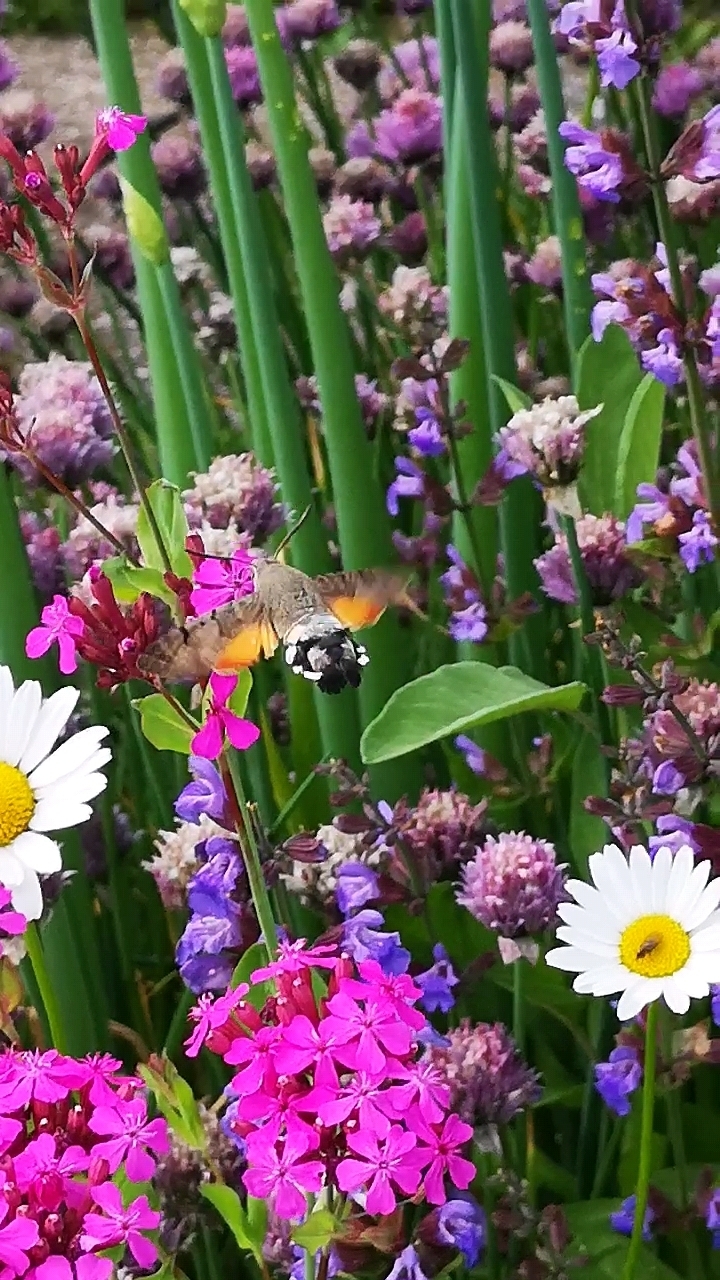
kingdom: Animalia
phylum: Arthropoda
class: Insecta
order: Lepidoptera
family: Sphingidae
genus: Macroglossum
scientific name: Macroglossum stellatarum
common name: Humming-bird hawk-moth
